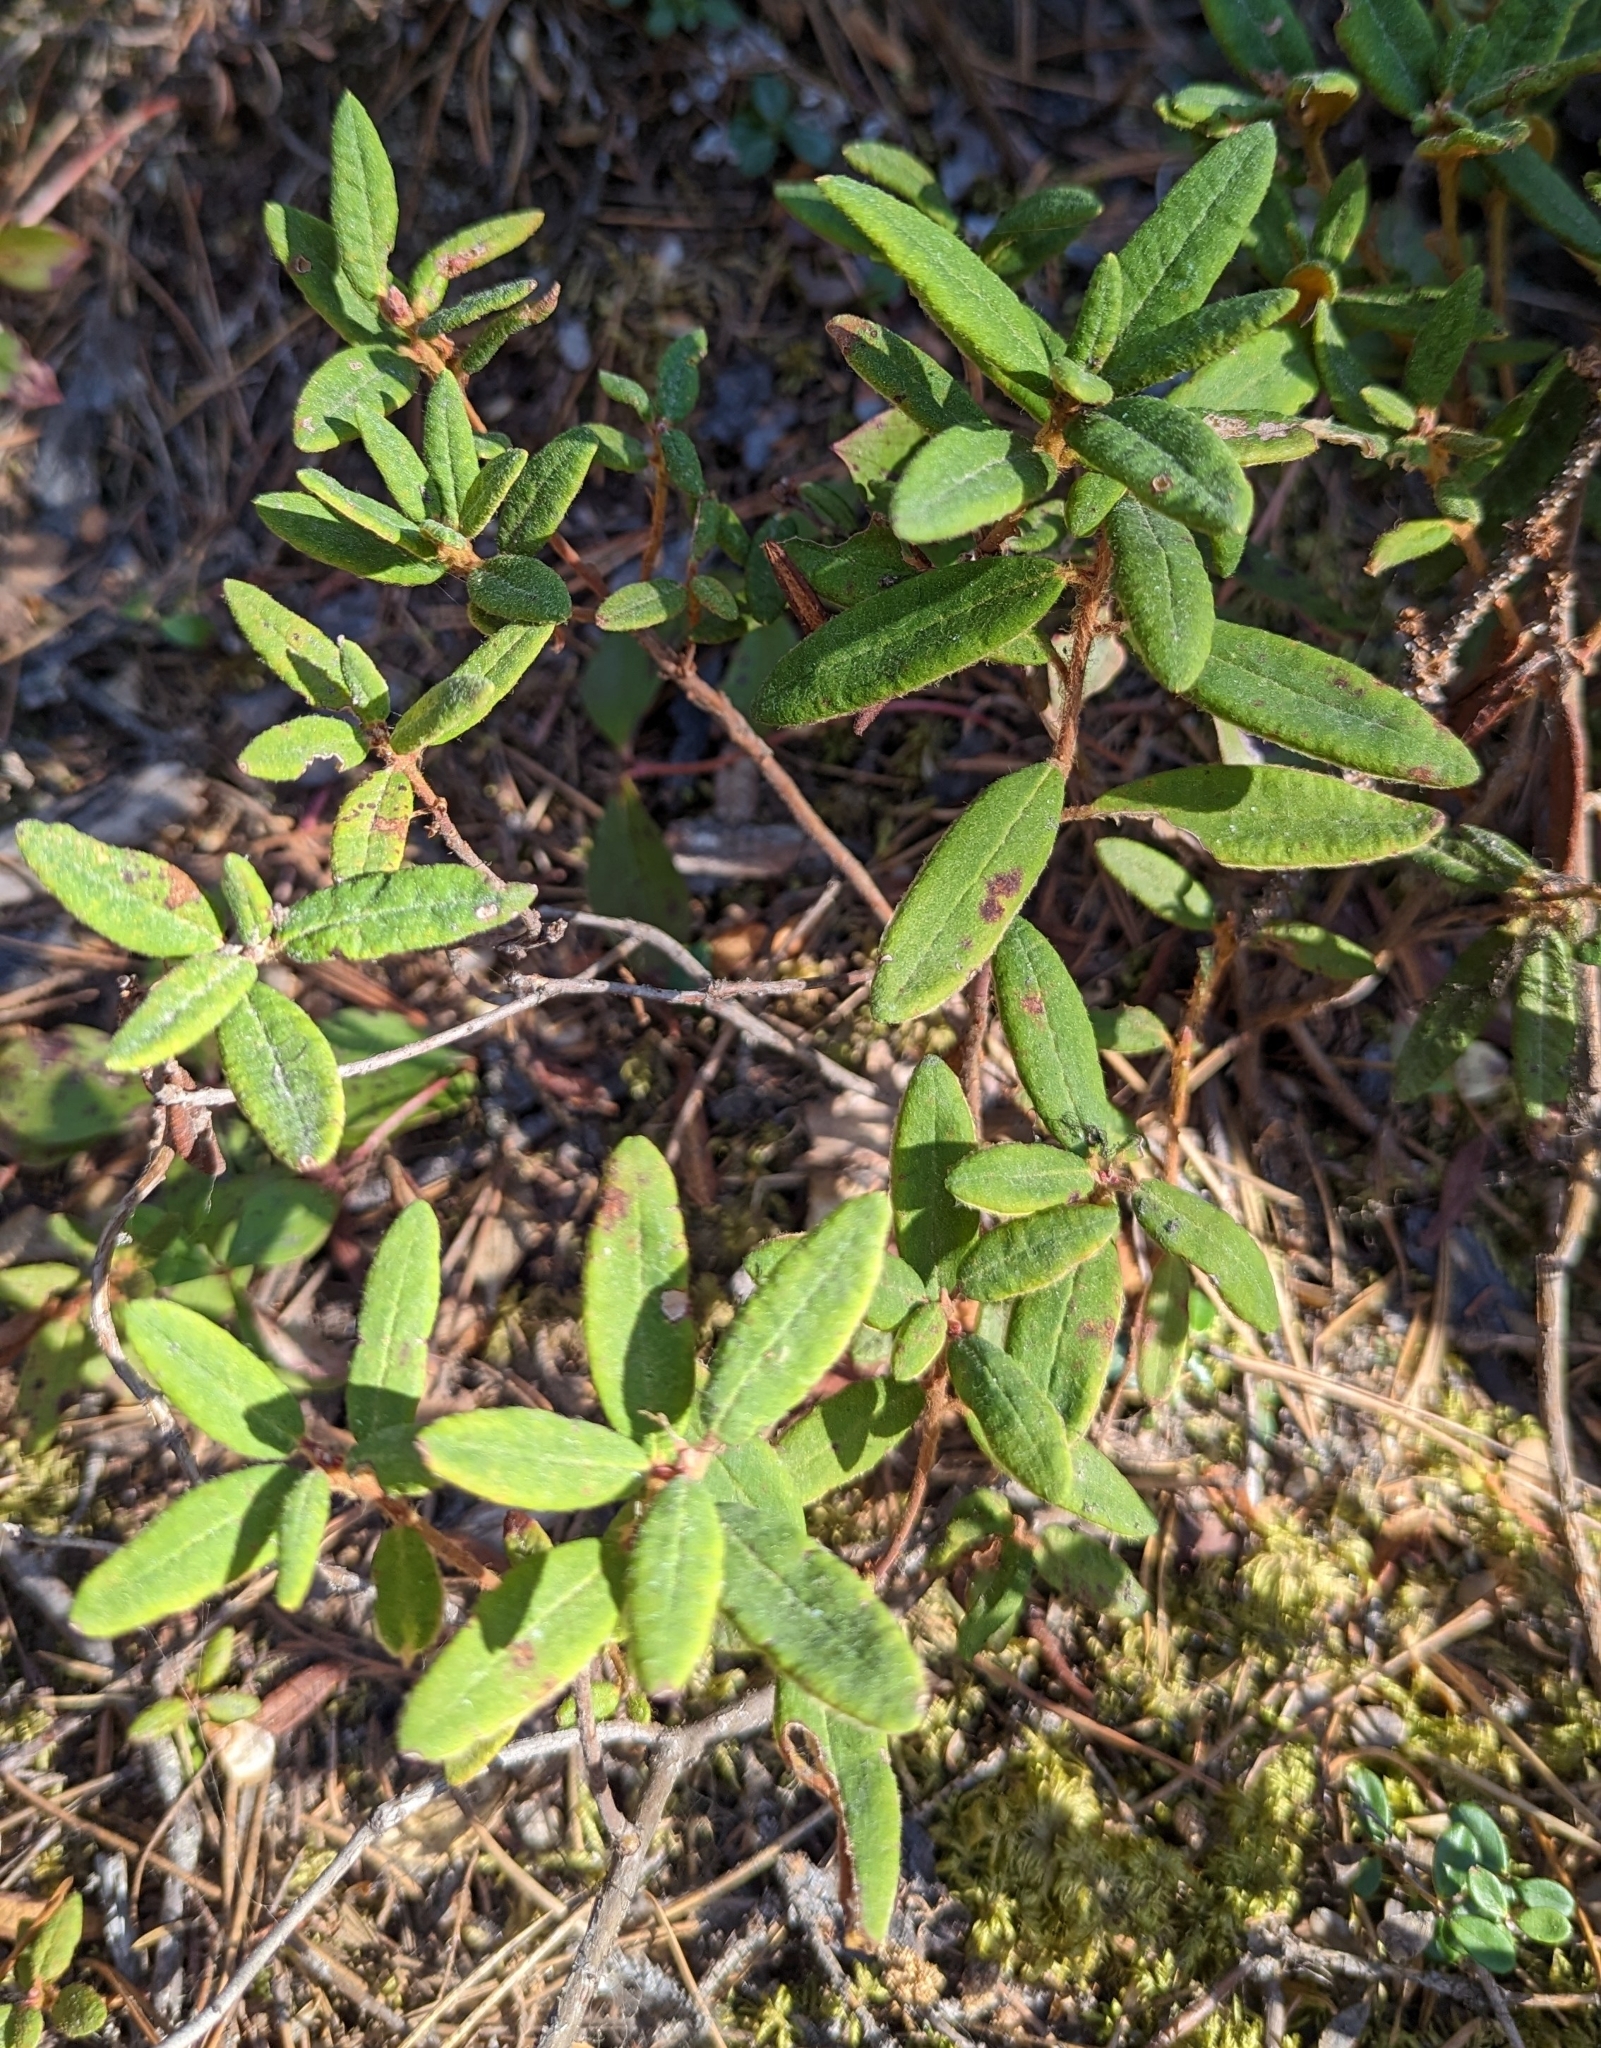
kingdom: Plantae
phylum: Tracheophyta
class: Magnoliopsida
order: Ericales
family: Ericaceae
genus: Rhododendron
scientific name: Rhododendron groenlandicum
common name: Bog labrador tea
